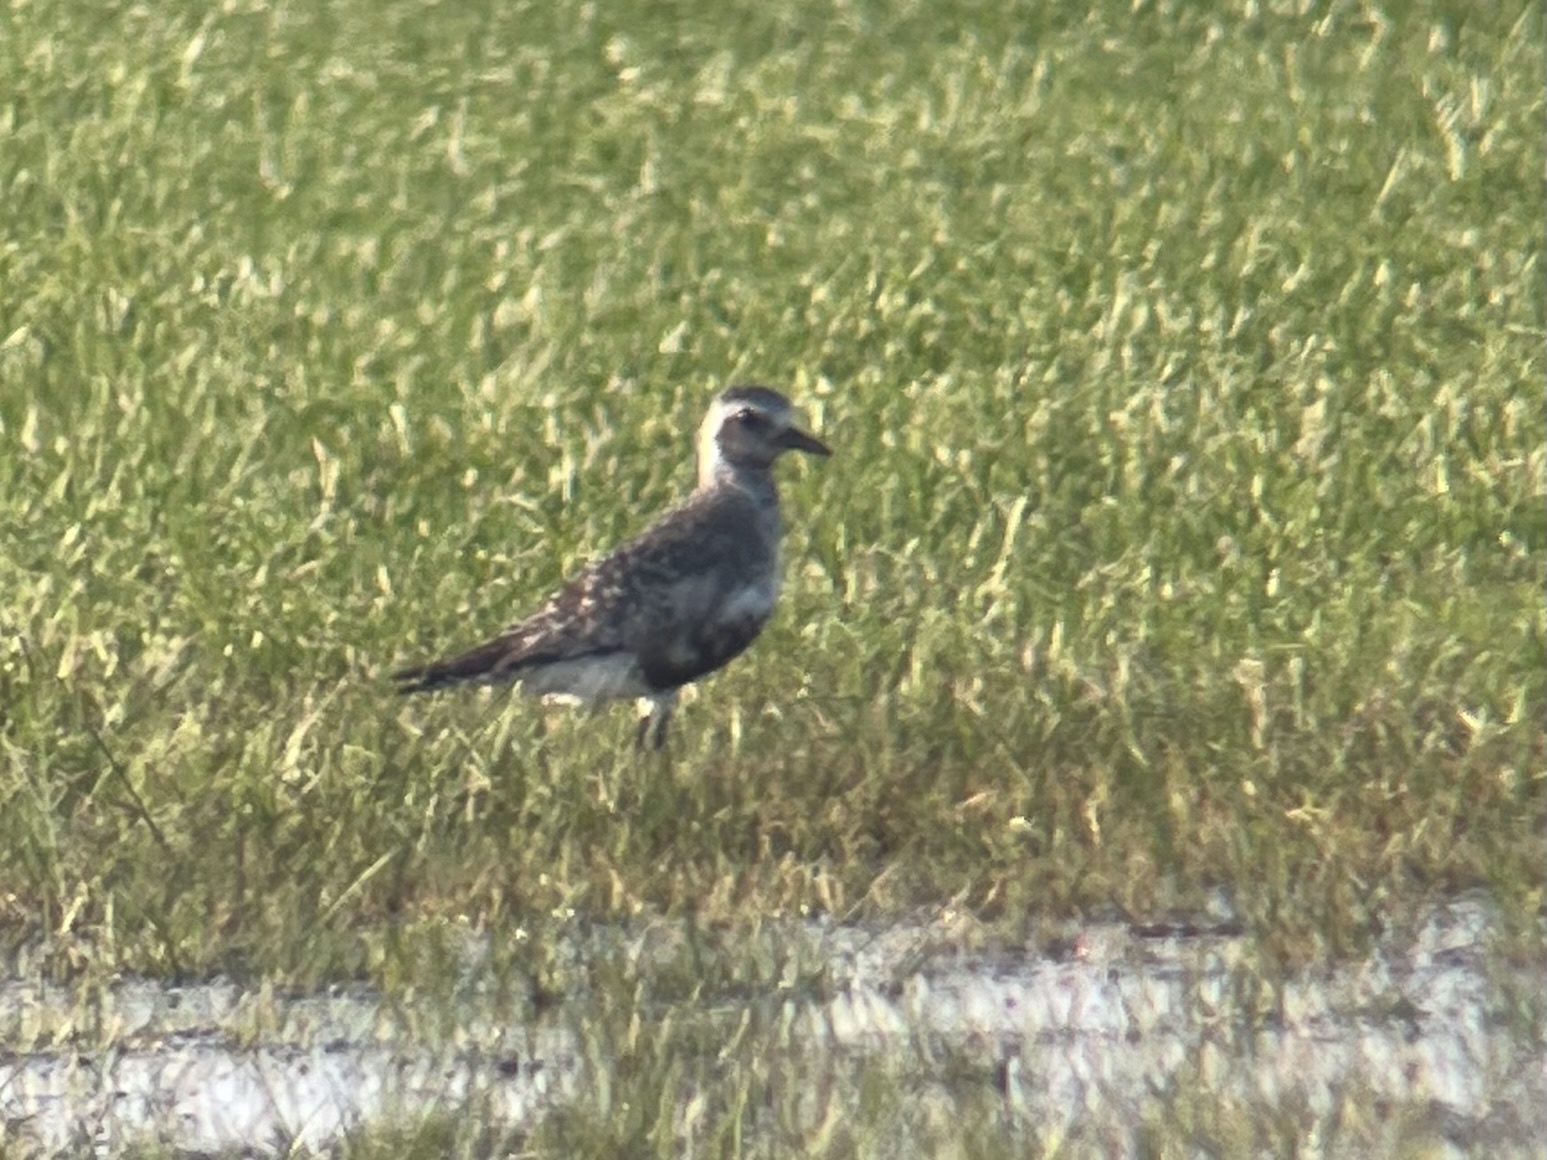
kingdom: Animalia
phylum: Chordata
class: Aves
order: Charadriiformes
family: Charadriidae
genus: Pluvialis
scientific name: Pluvialis squatarola
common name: Grey plover
